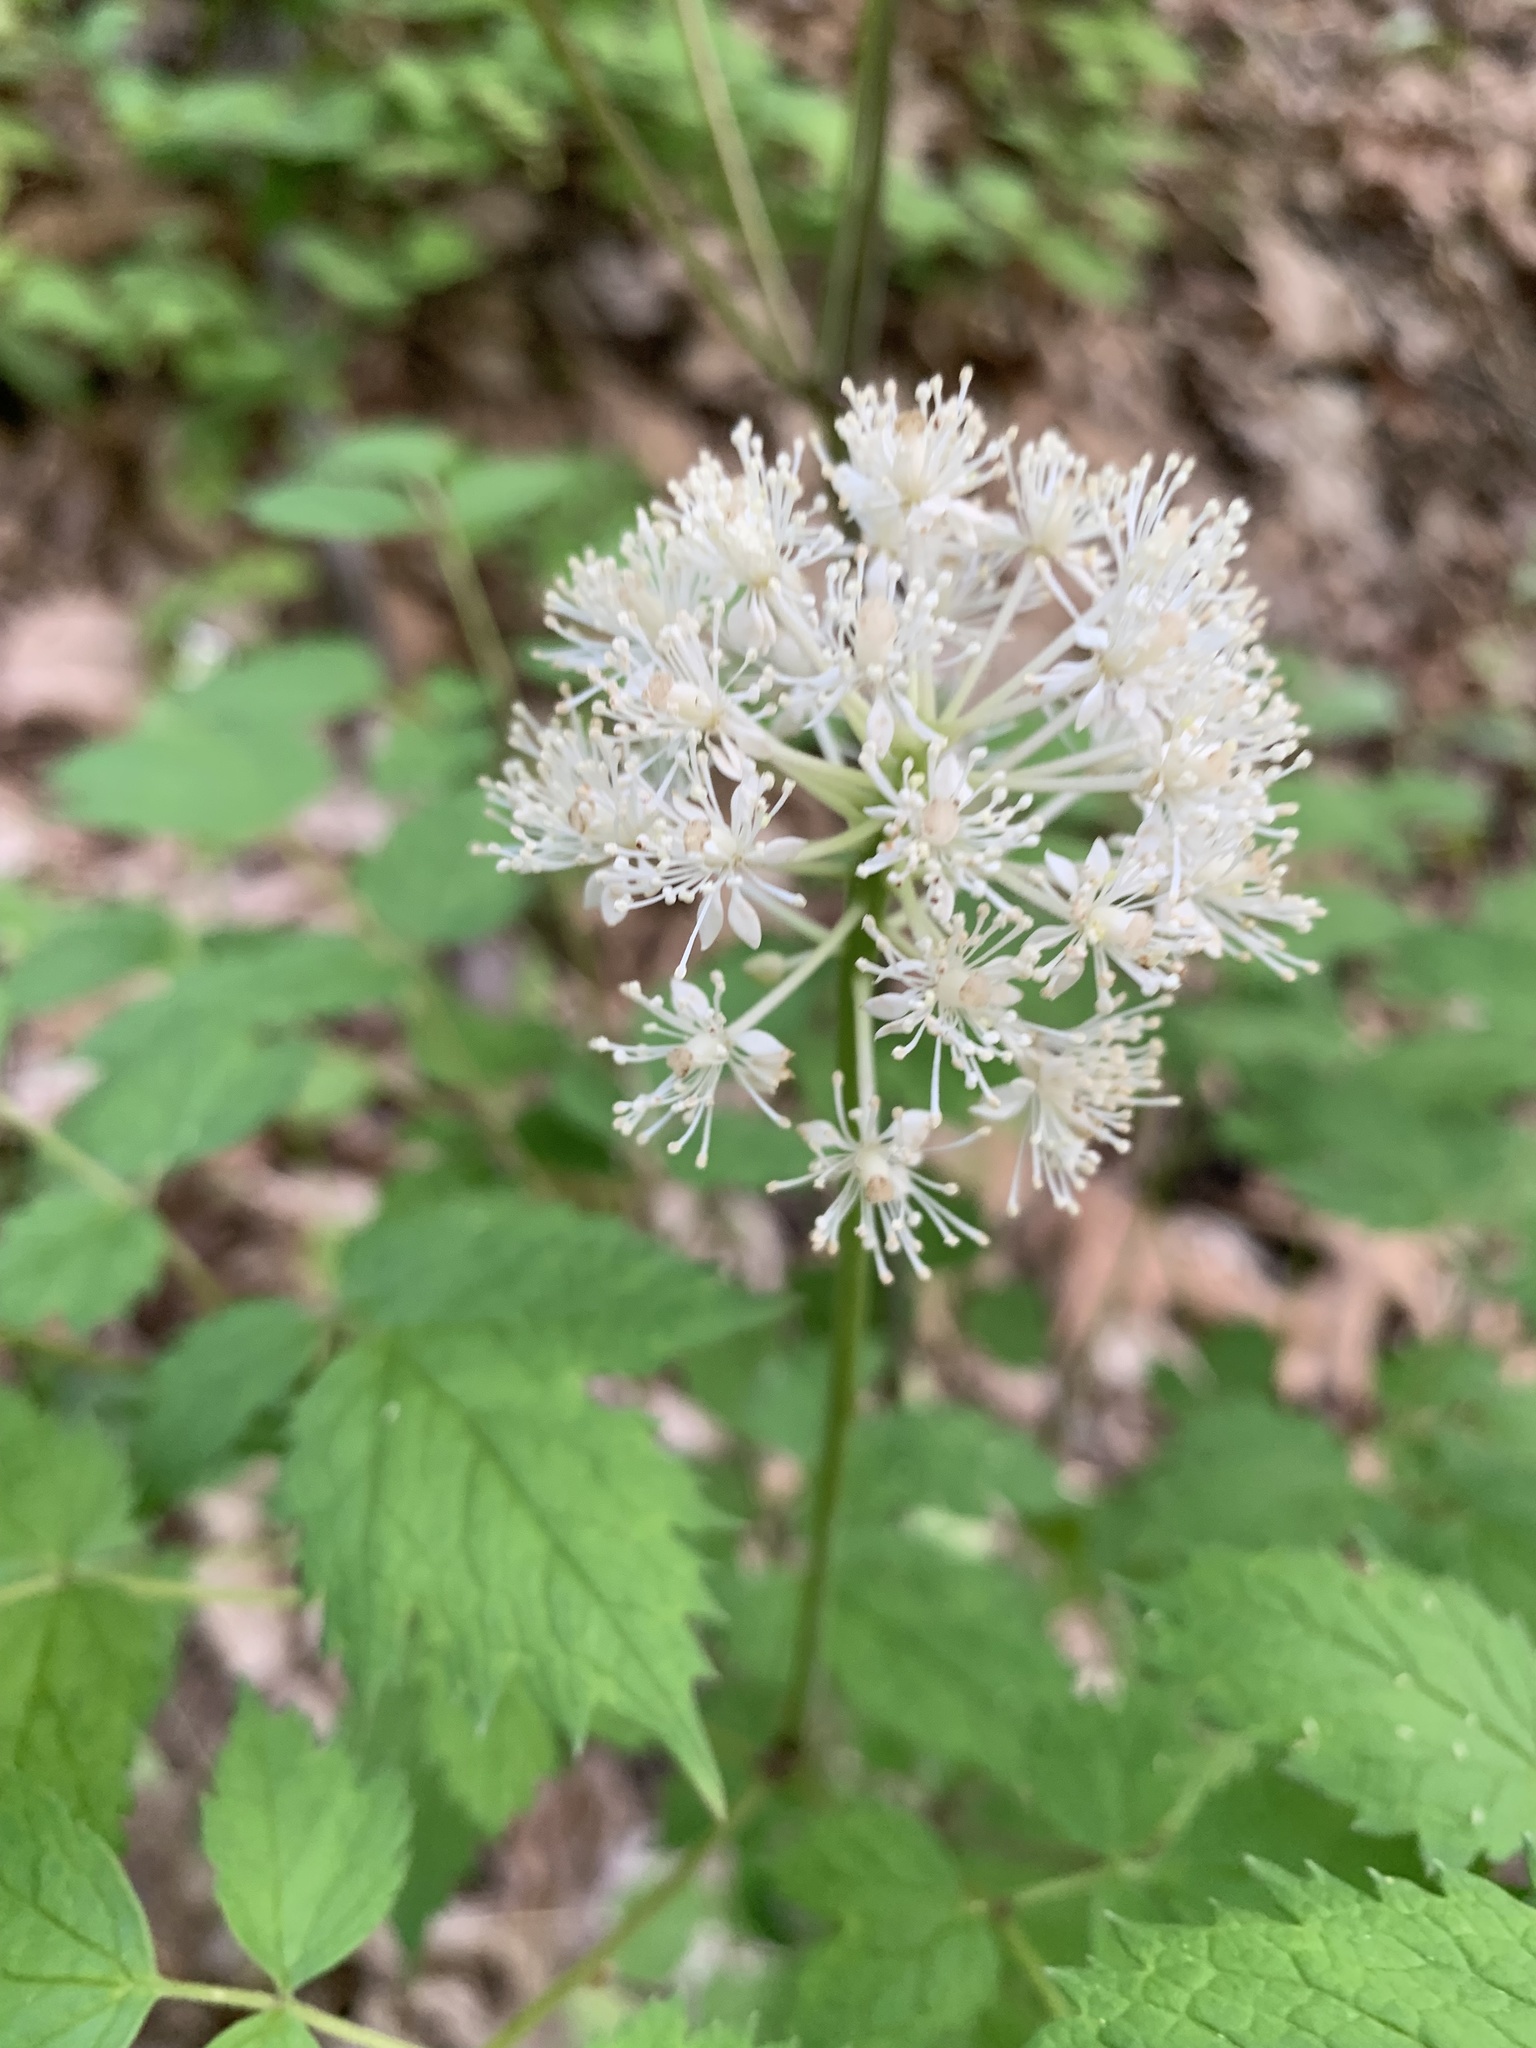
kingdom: Plantae
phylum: Tracheophyta
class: Magnoliopsida
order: Ranunculales
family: Ranunculaceae
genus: Actaea
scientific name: Actaea rubra
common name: Red baneberry
